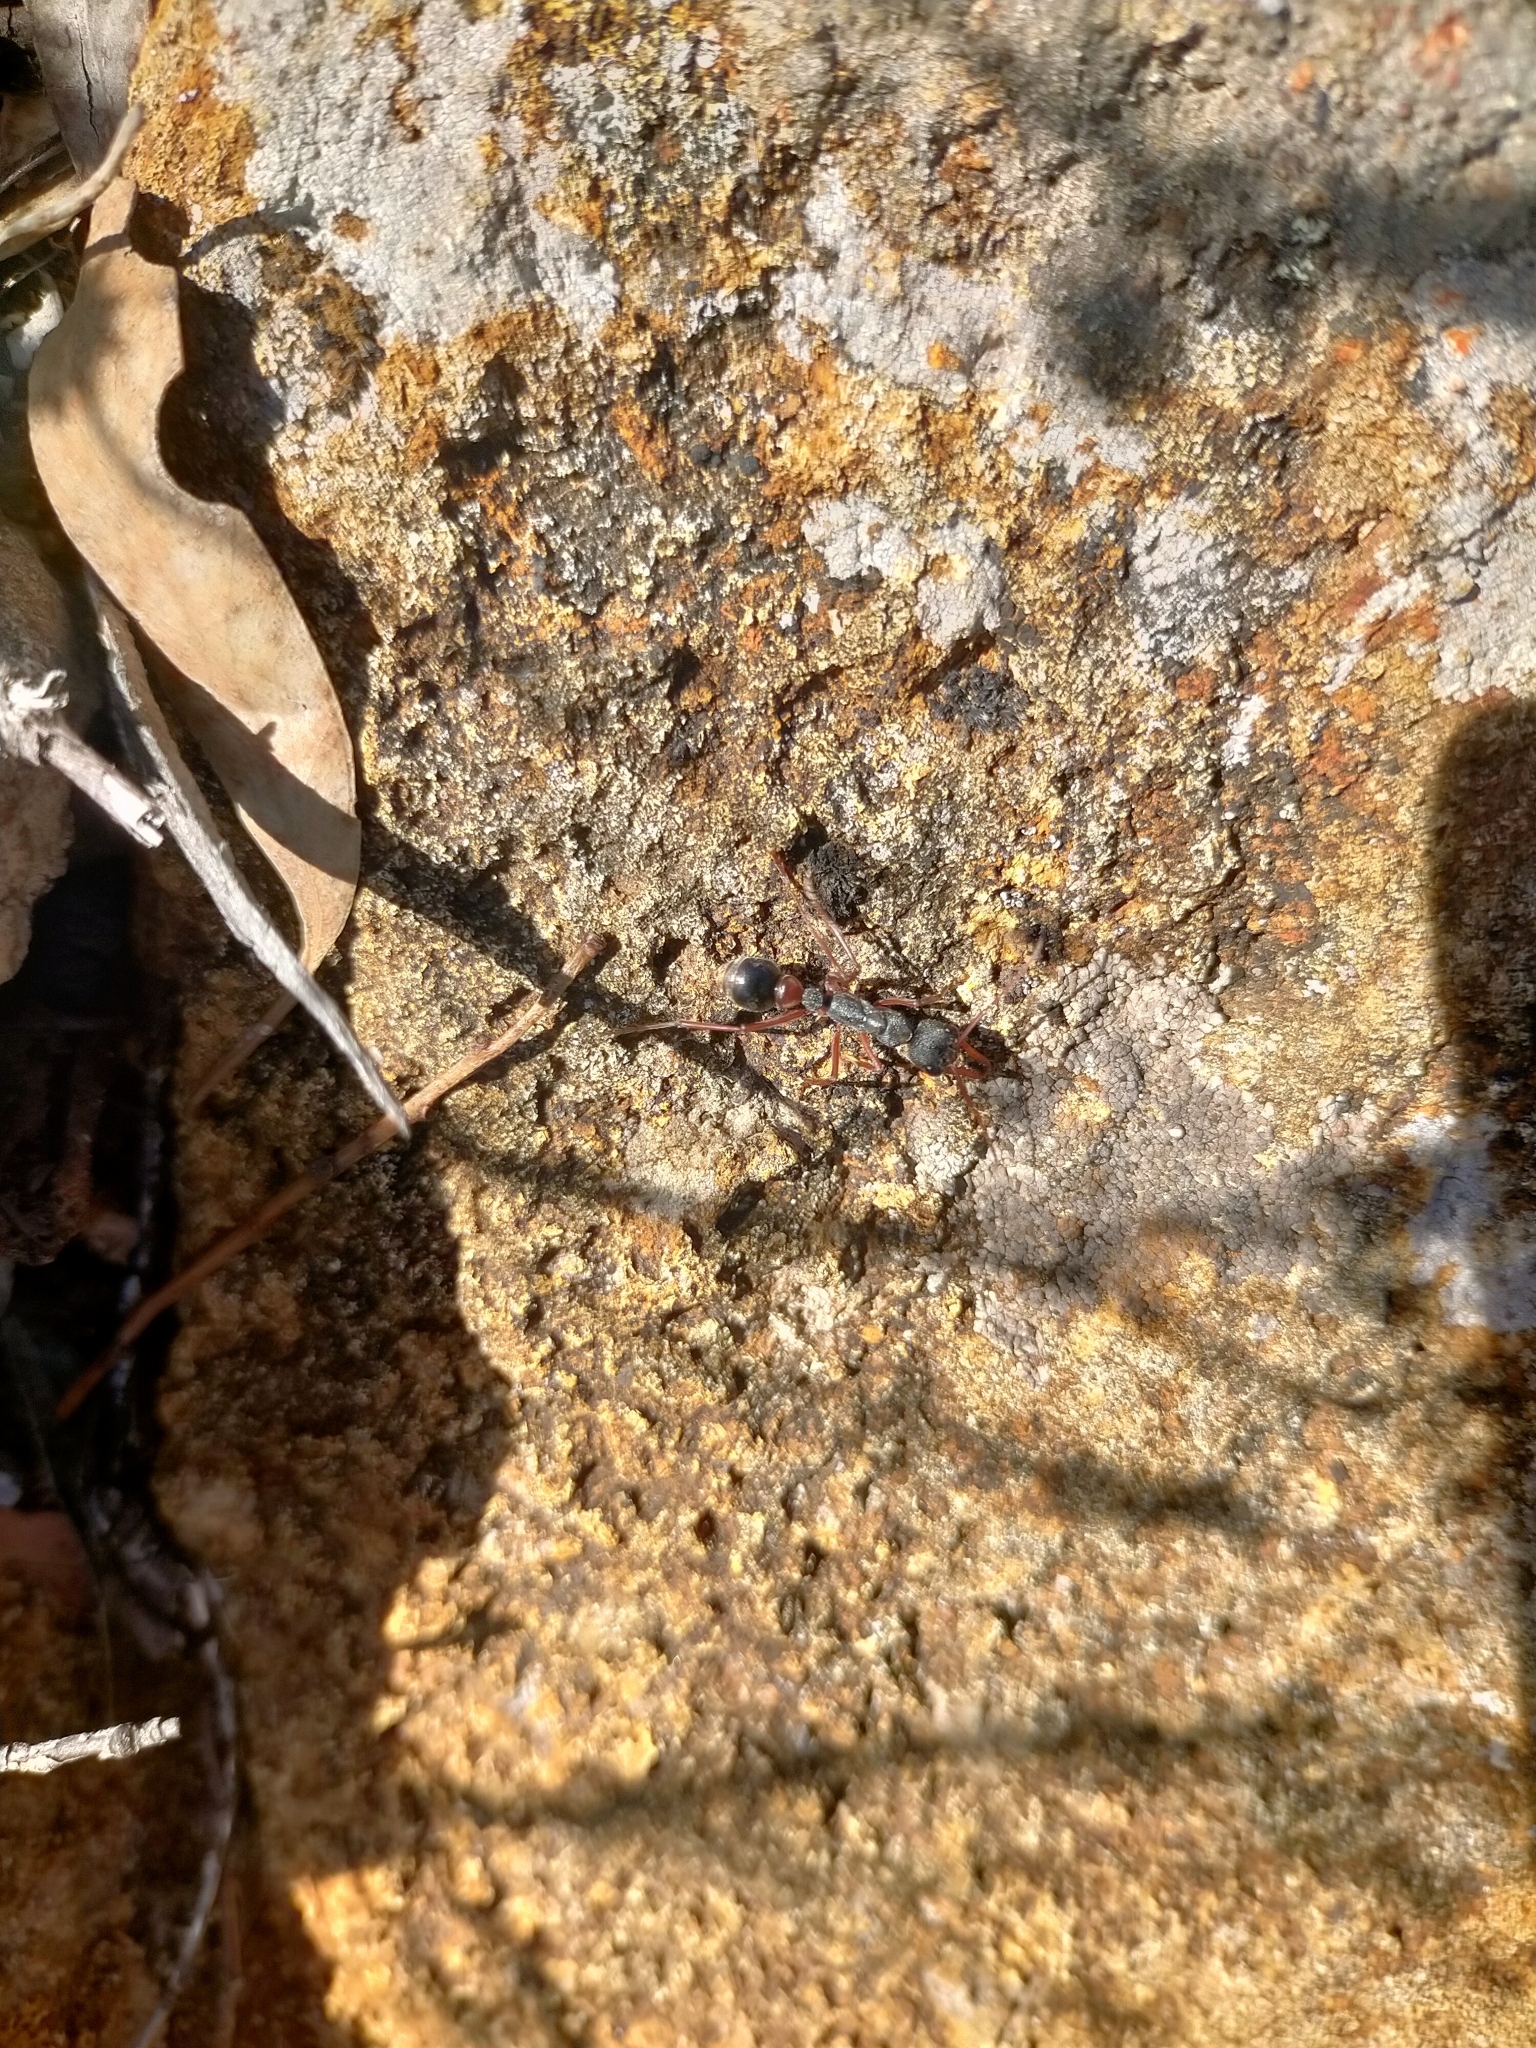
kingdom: Animalia
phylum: Arthropoda
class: Insecta
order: Hymenoptera
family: Formicidae
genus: Myrmecia
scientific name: Myrmecia esuriens
